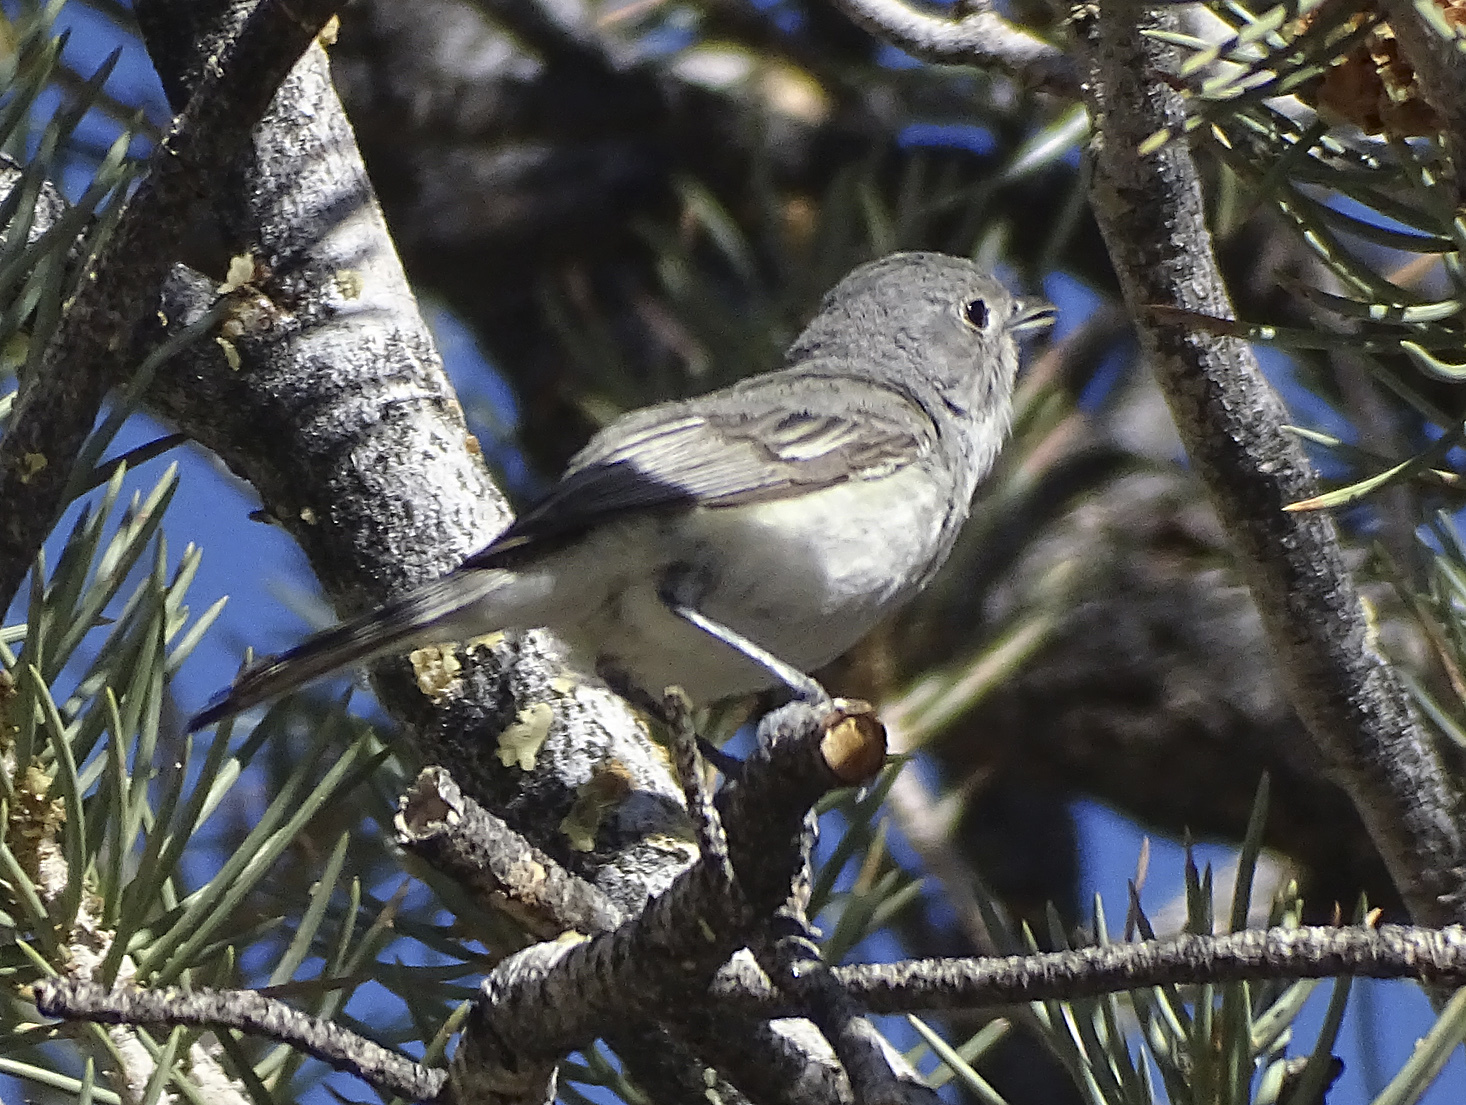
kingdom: Animalia
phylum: Chordata
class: Aves
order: Passeriformes
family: Vireonidae
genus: Vireo
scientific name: Vireo vicinior
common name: Gray vireo
